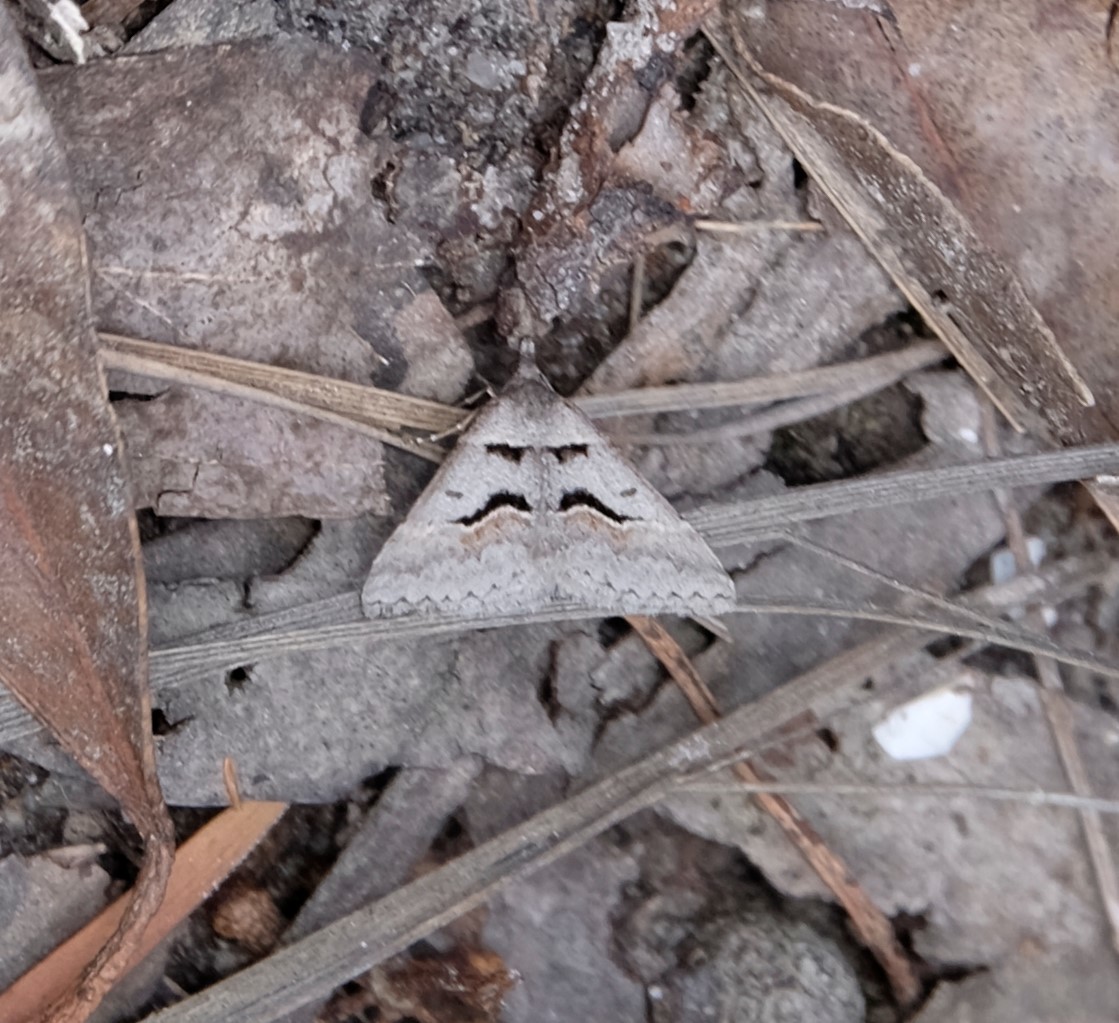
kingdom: Animalia
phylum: Arthropoda
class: Insecta
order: Lepidoptera
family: Geometridae
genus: Dichromodes
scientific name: Dichromodes atrosignata
